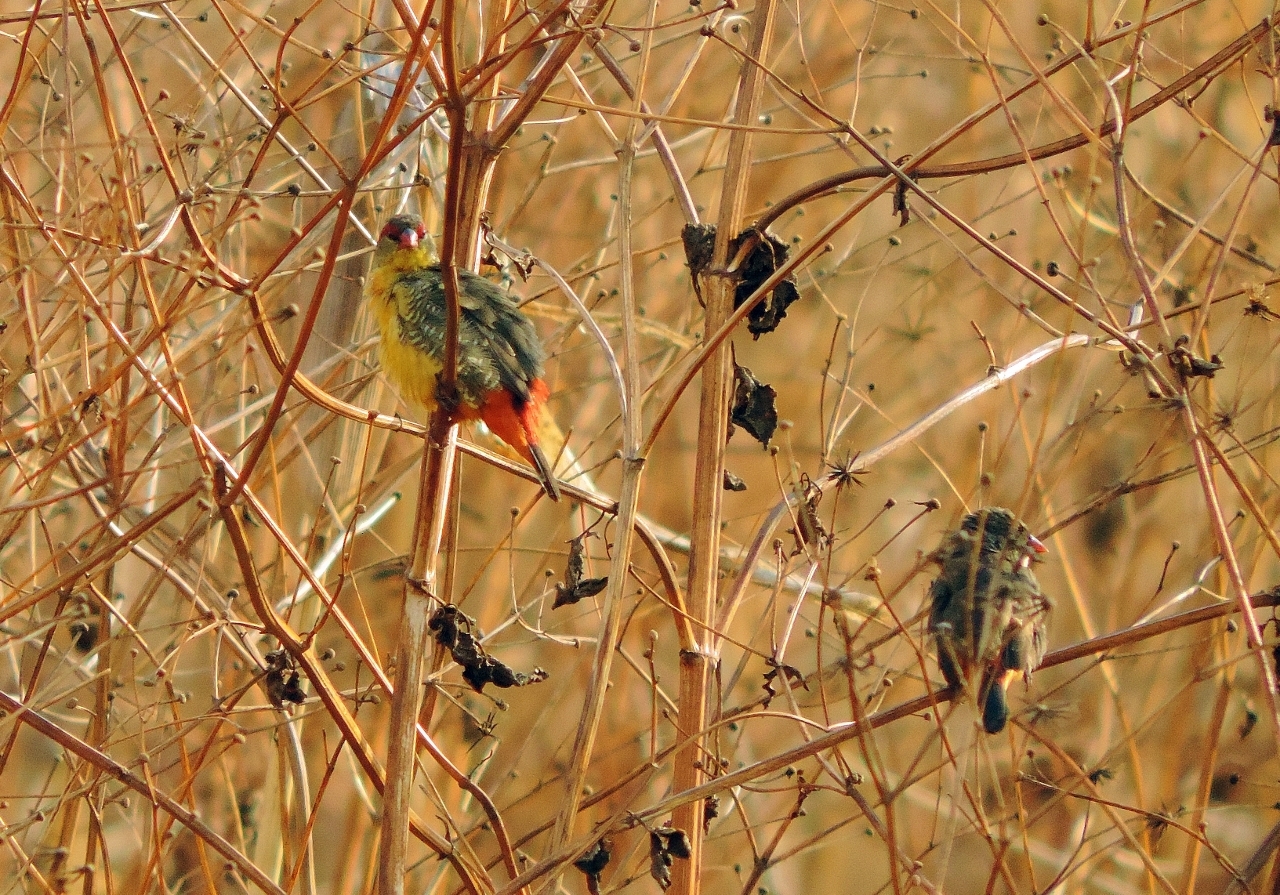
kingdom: Animalia
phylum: Chordata
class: Aves
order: Passeriformes
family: Estrildidae
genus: Amandava
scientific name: Amandava subflava
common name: Orange-breasted waxbill
